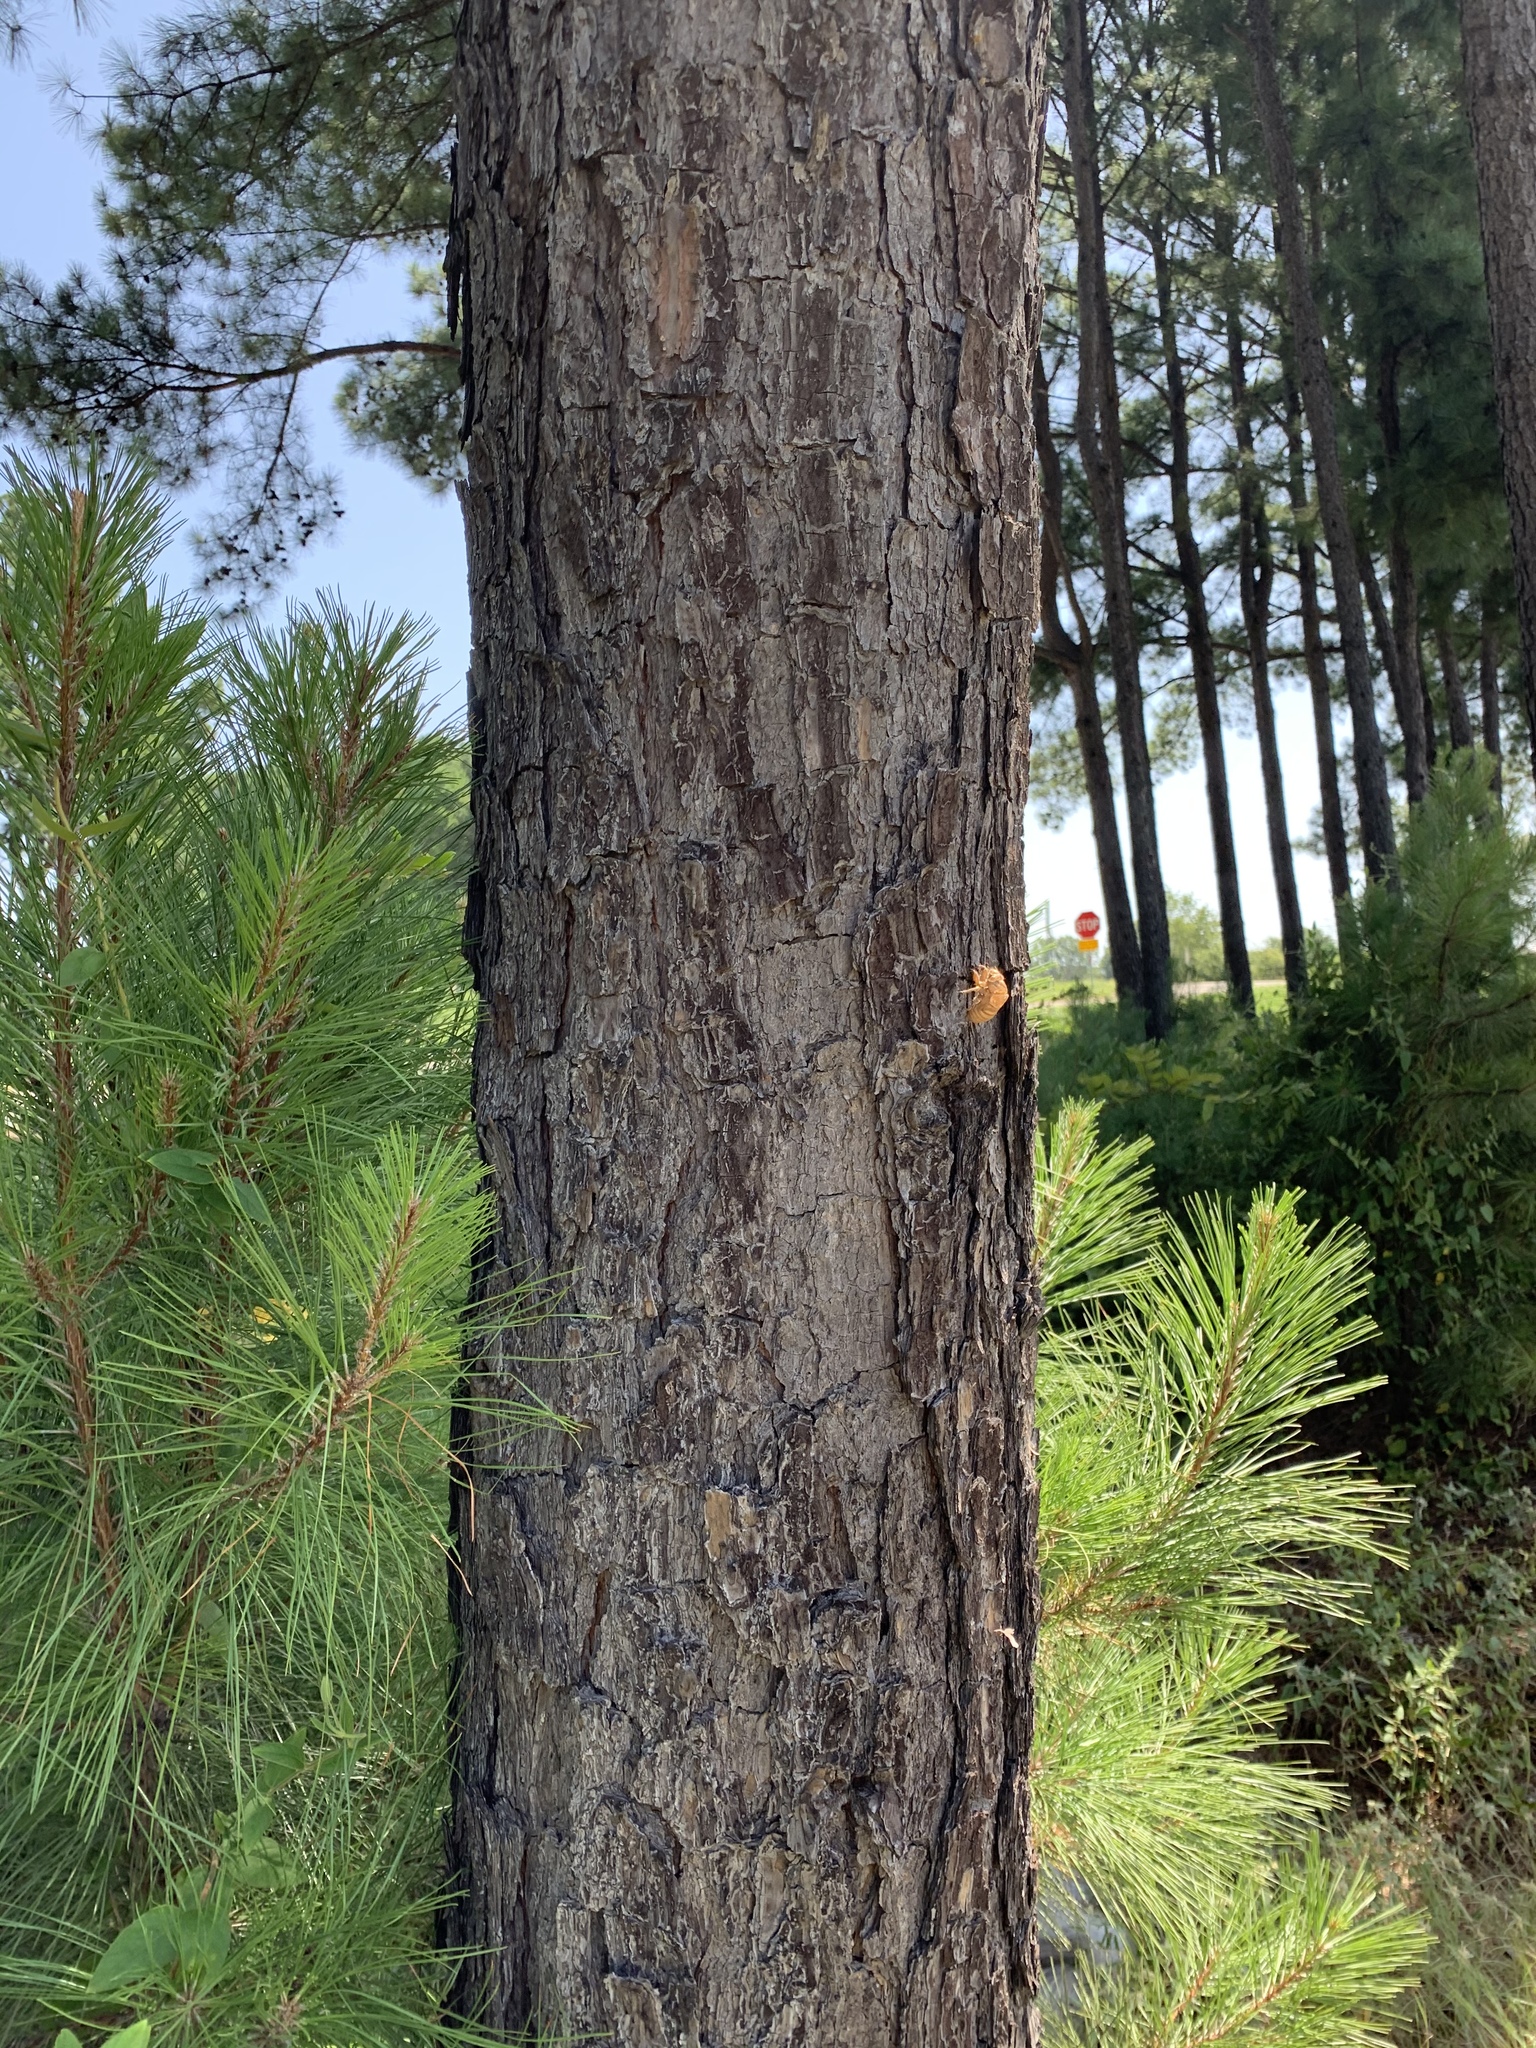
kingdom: Plantae
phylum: Tracheophyta
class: Pinopsida
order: Pinales
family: Pinaceae
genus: Pinus
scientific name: Pinus echinata
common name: Shortleaf pine
